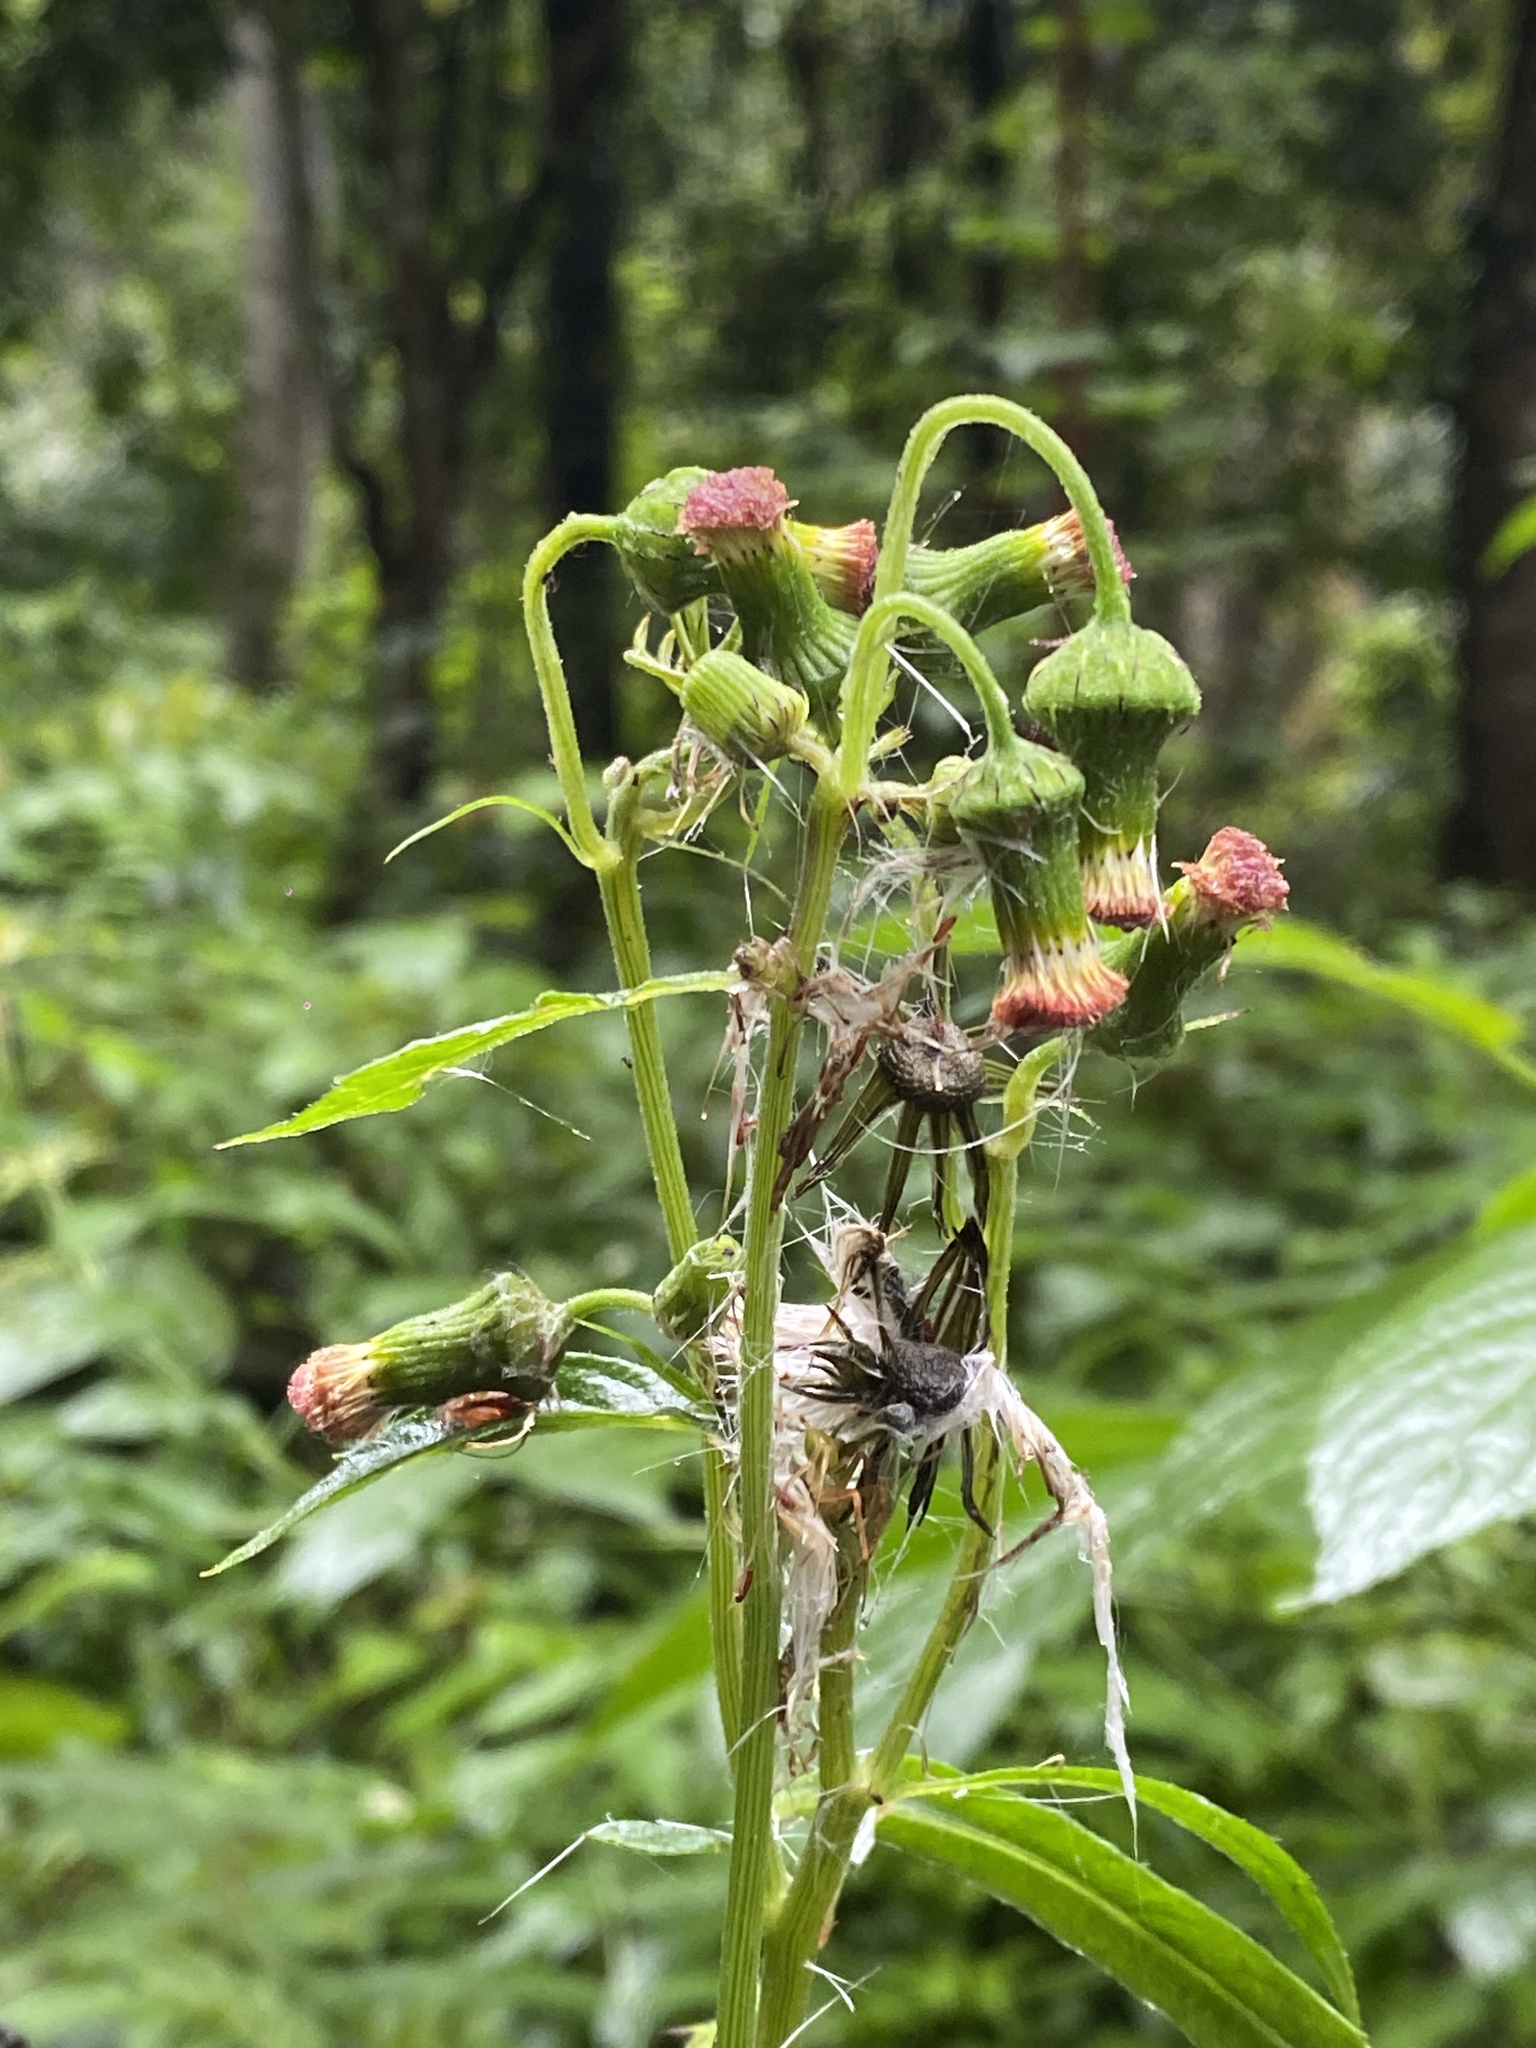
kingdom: Plantae
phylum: Tracheophyta
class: Magnoliopsida
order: Asterales
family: Asteraceae
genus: Crassocephalum
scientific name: Crassocephalum crepidioides
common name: Redflower ragleaf
